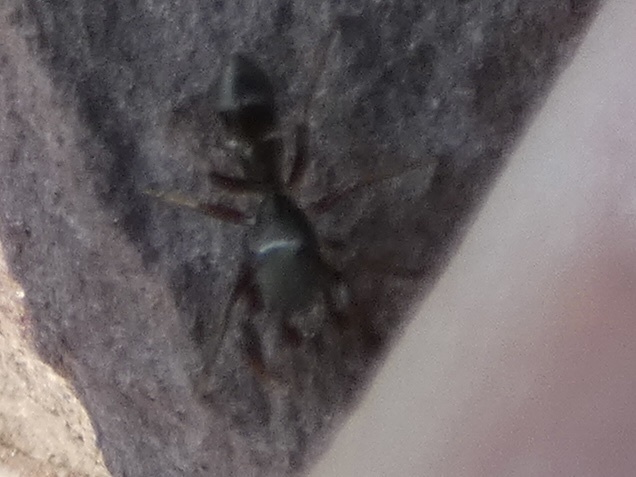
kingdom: Animalia
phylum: Arthropoda
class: Arachnida
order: Araneae
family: Salticidae
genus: Synageles
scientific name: Synageles venator
